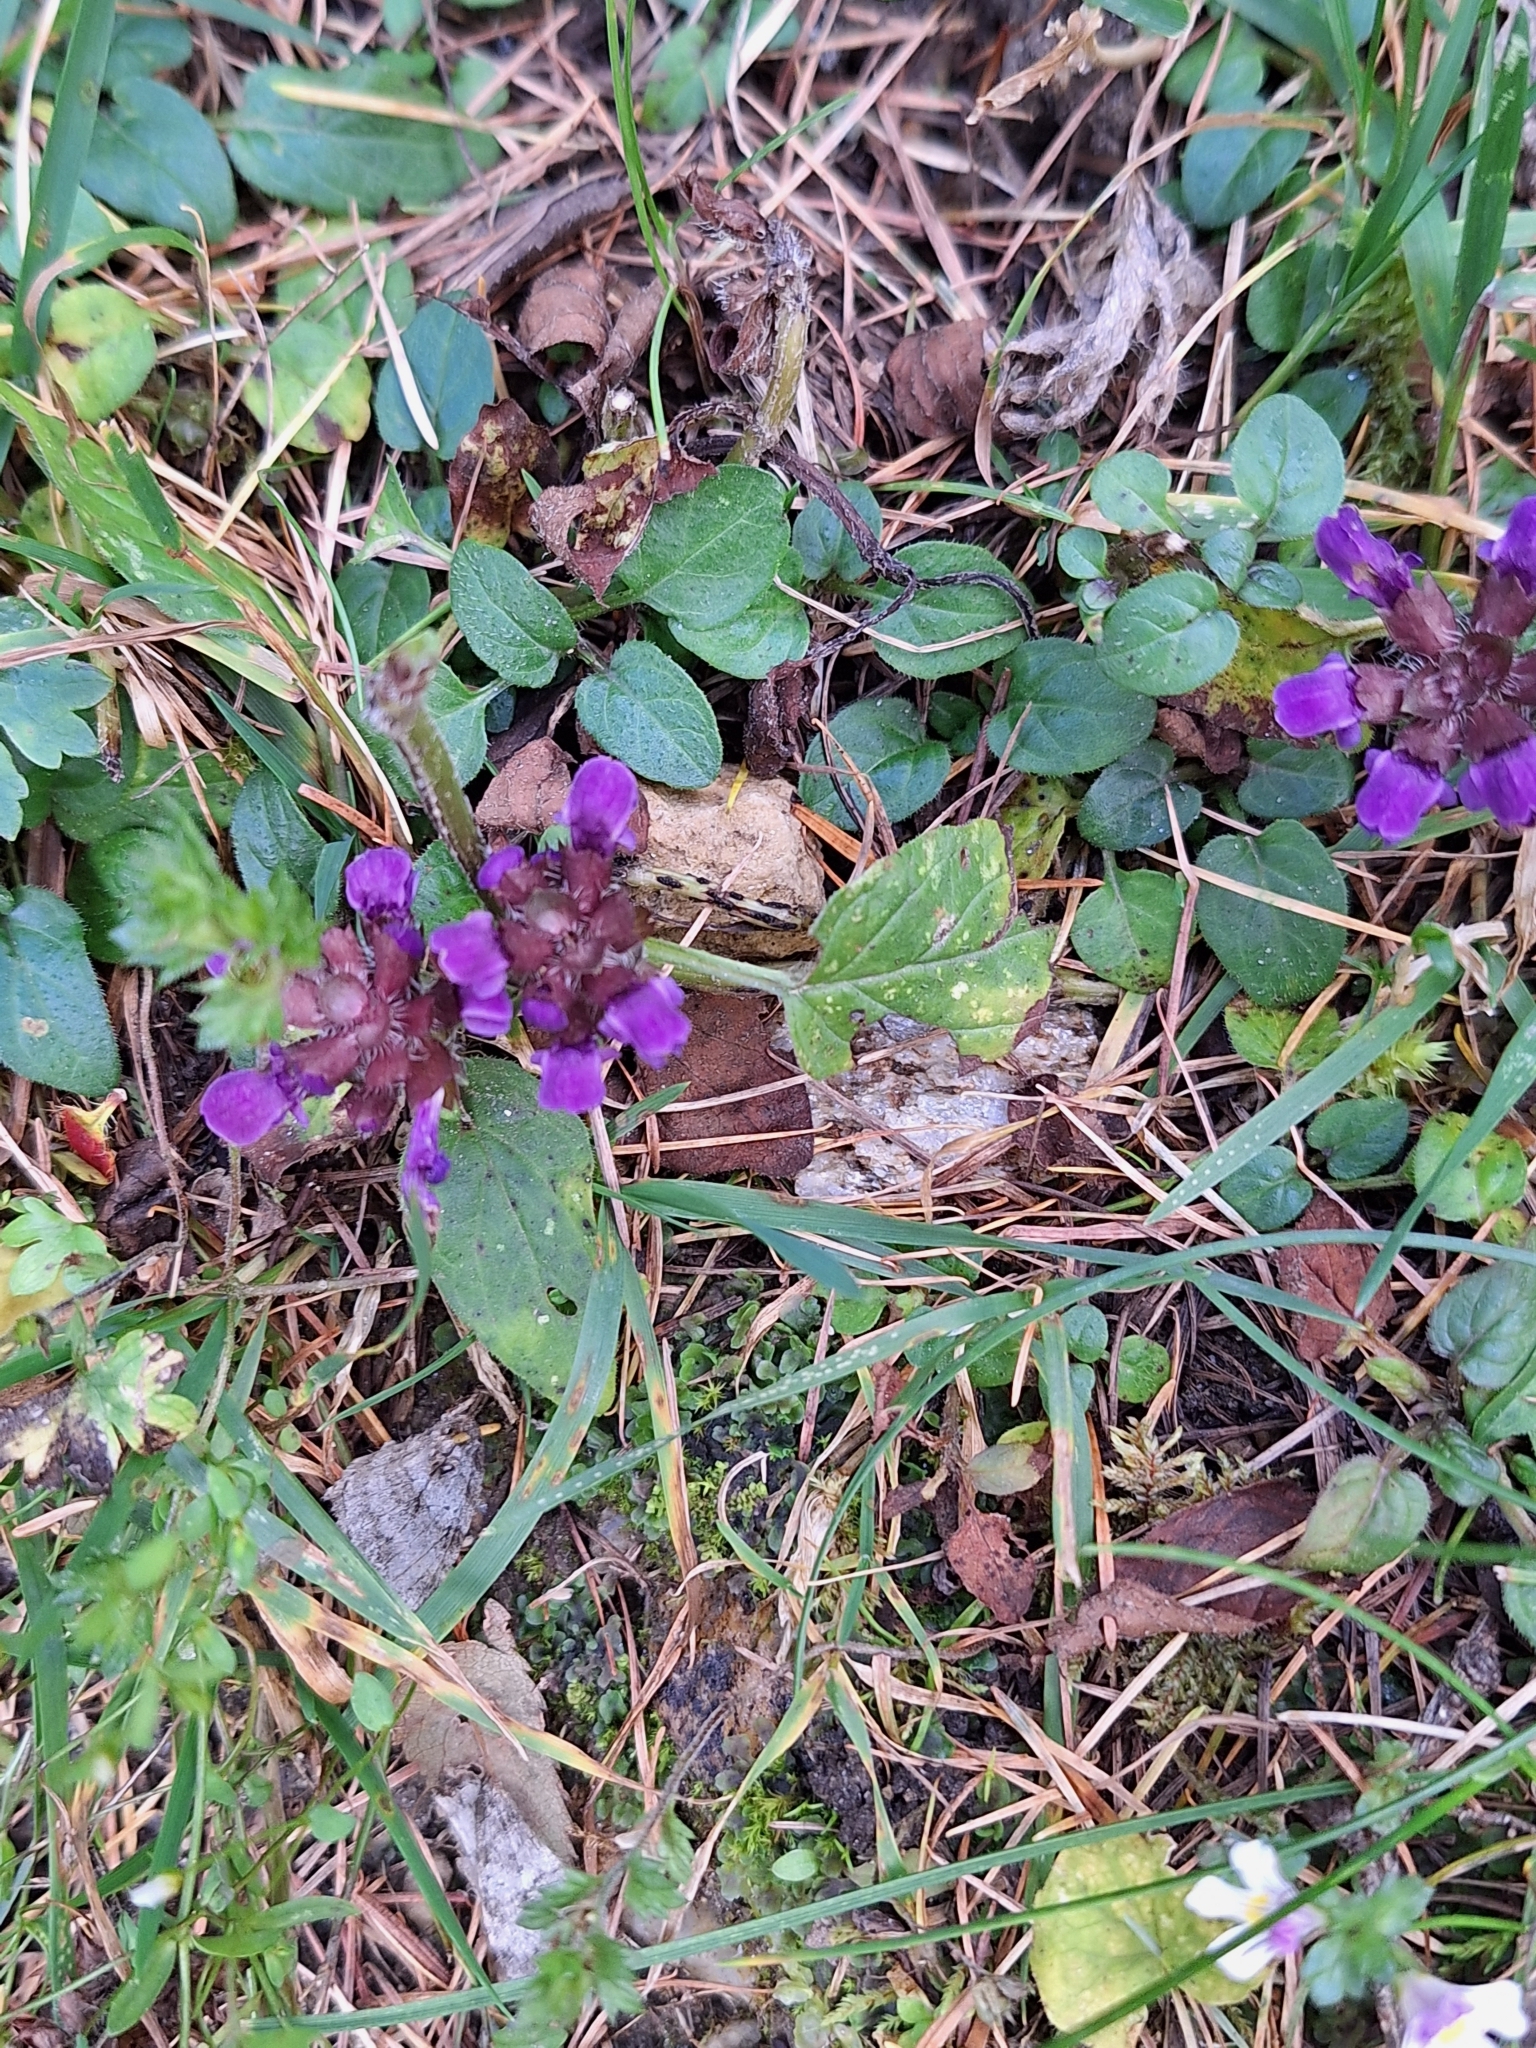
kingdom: Plantae
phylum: Tracheophyta
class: Magnoliopsida
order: Lamiales
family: Lamiaceae
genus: Prunella
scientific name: Prunella vulgaris
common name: Heal-all
